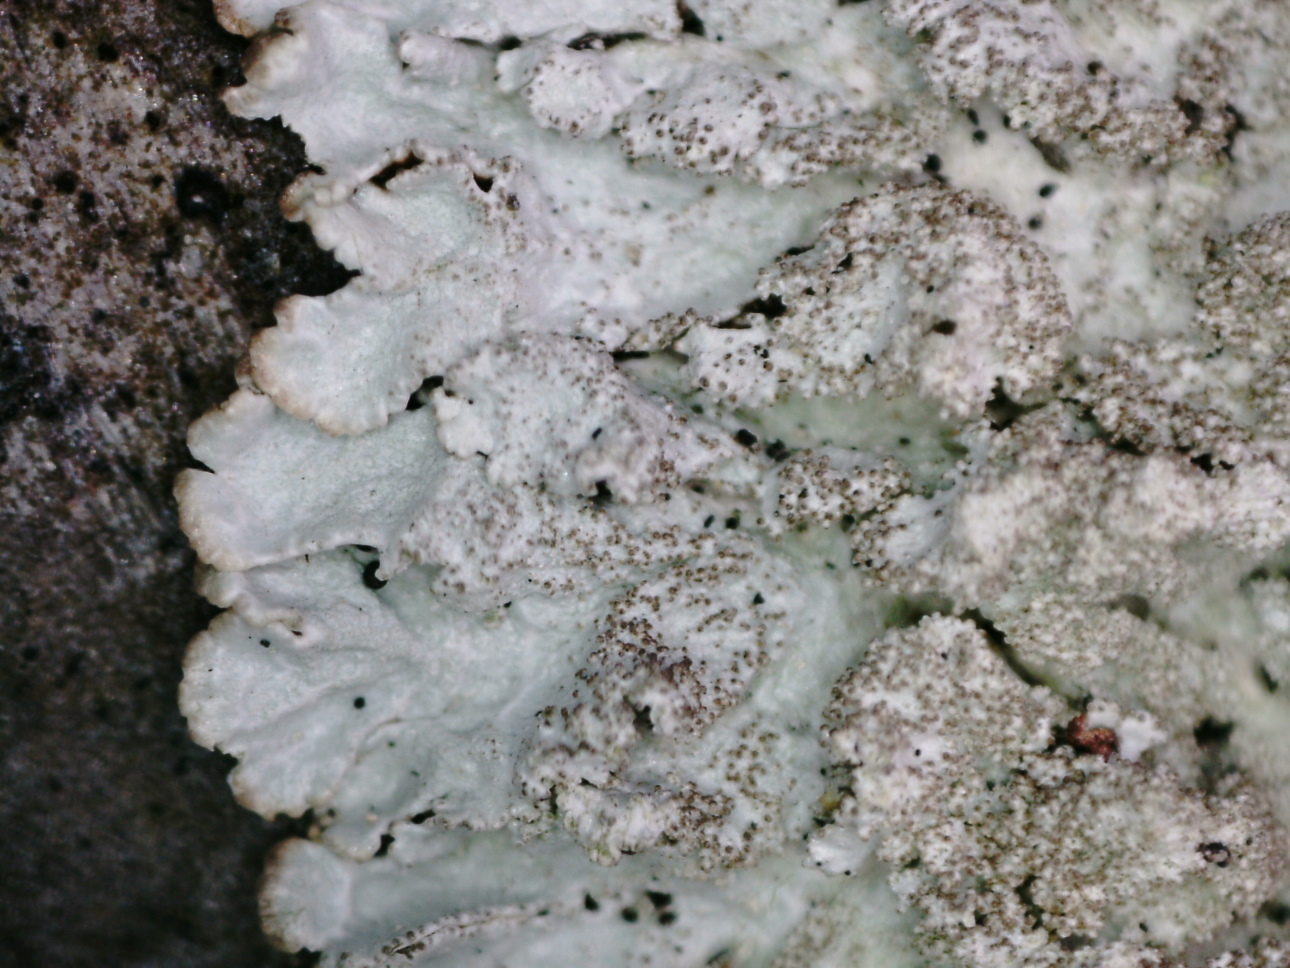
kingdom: Fungi
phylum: Ascomycota
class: Lecanoromycetes
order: Lecanorales
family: Parmeliaceae
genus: Imshaugia
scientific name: Imshaugia aleurites
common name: Salted starburst lichen
